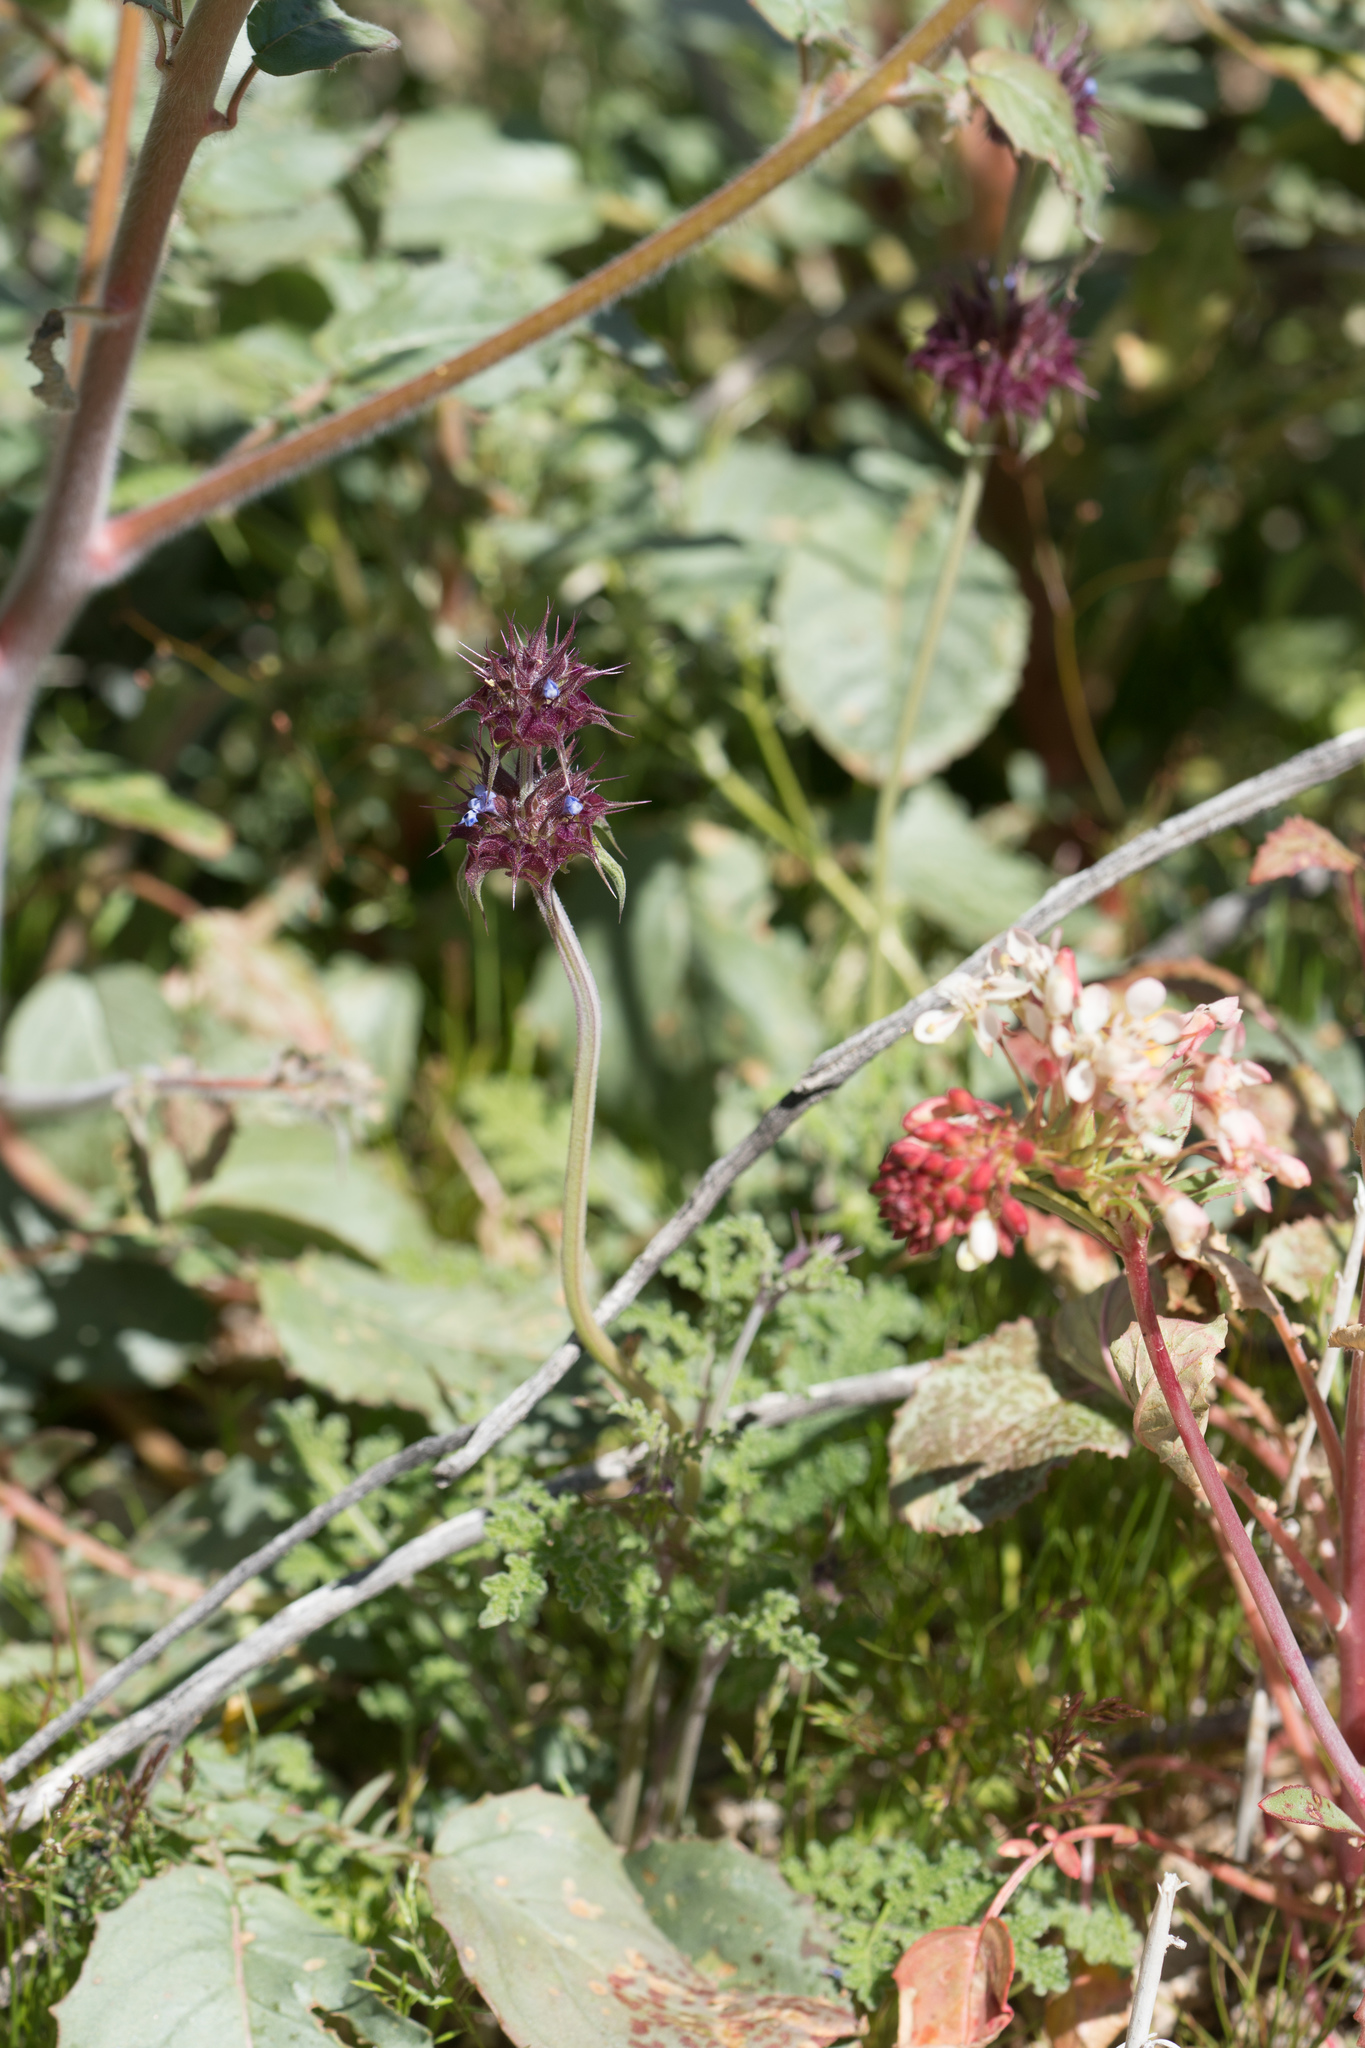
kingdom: Plantae
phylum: Tracheophyta
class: Magnoliopsida
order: Lamiales
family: Lamiaceae
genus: Salvia
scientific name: Salvia columbariae
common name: Chia
